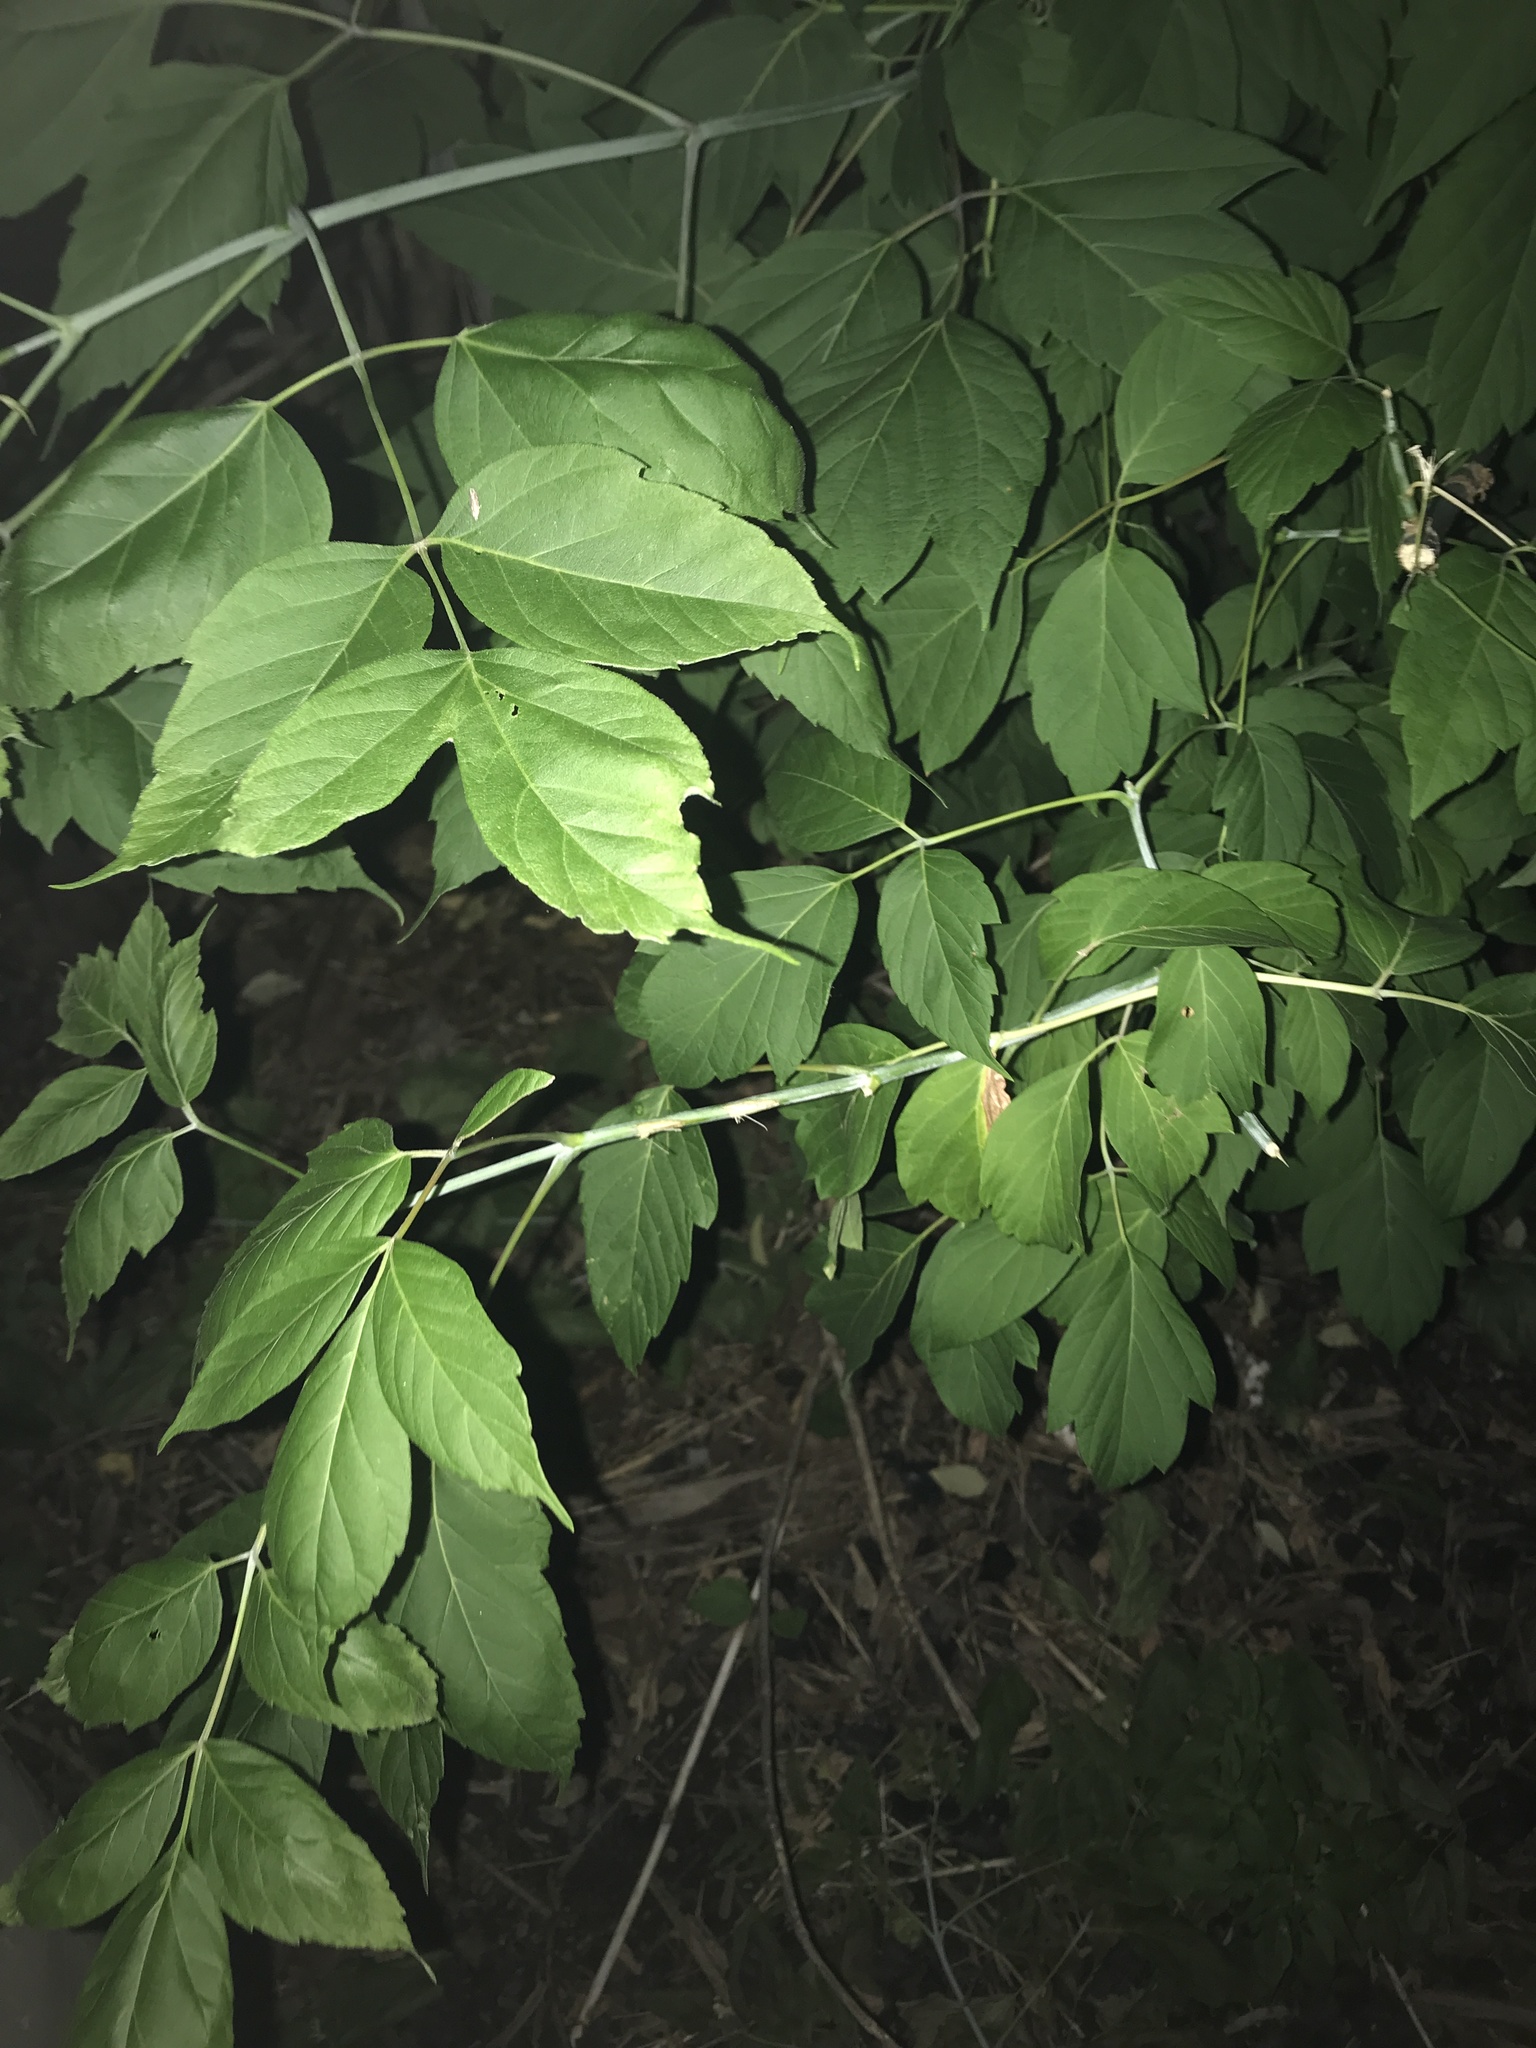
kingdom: Plantae
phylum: Tracheophyta
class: Magnoliopsida
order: Sapindales
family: Sapindaceae
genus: Acer
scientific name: Acer negundo
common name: Ashleaf maple
